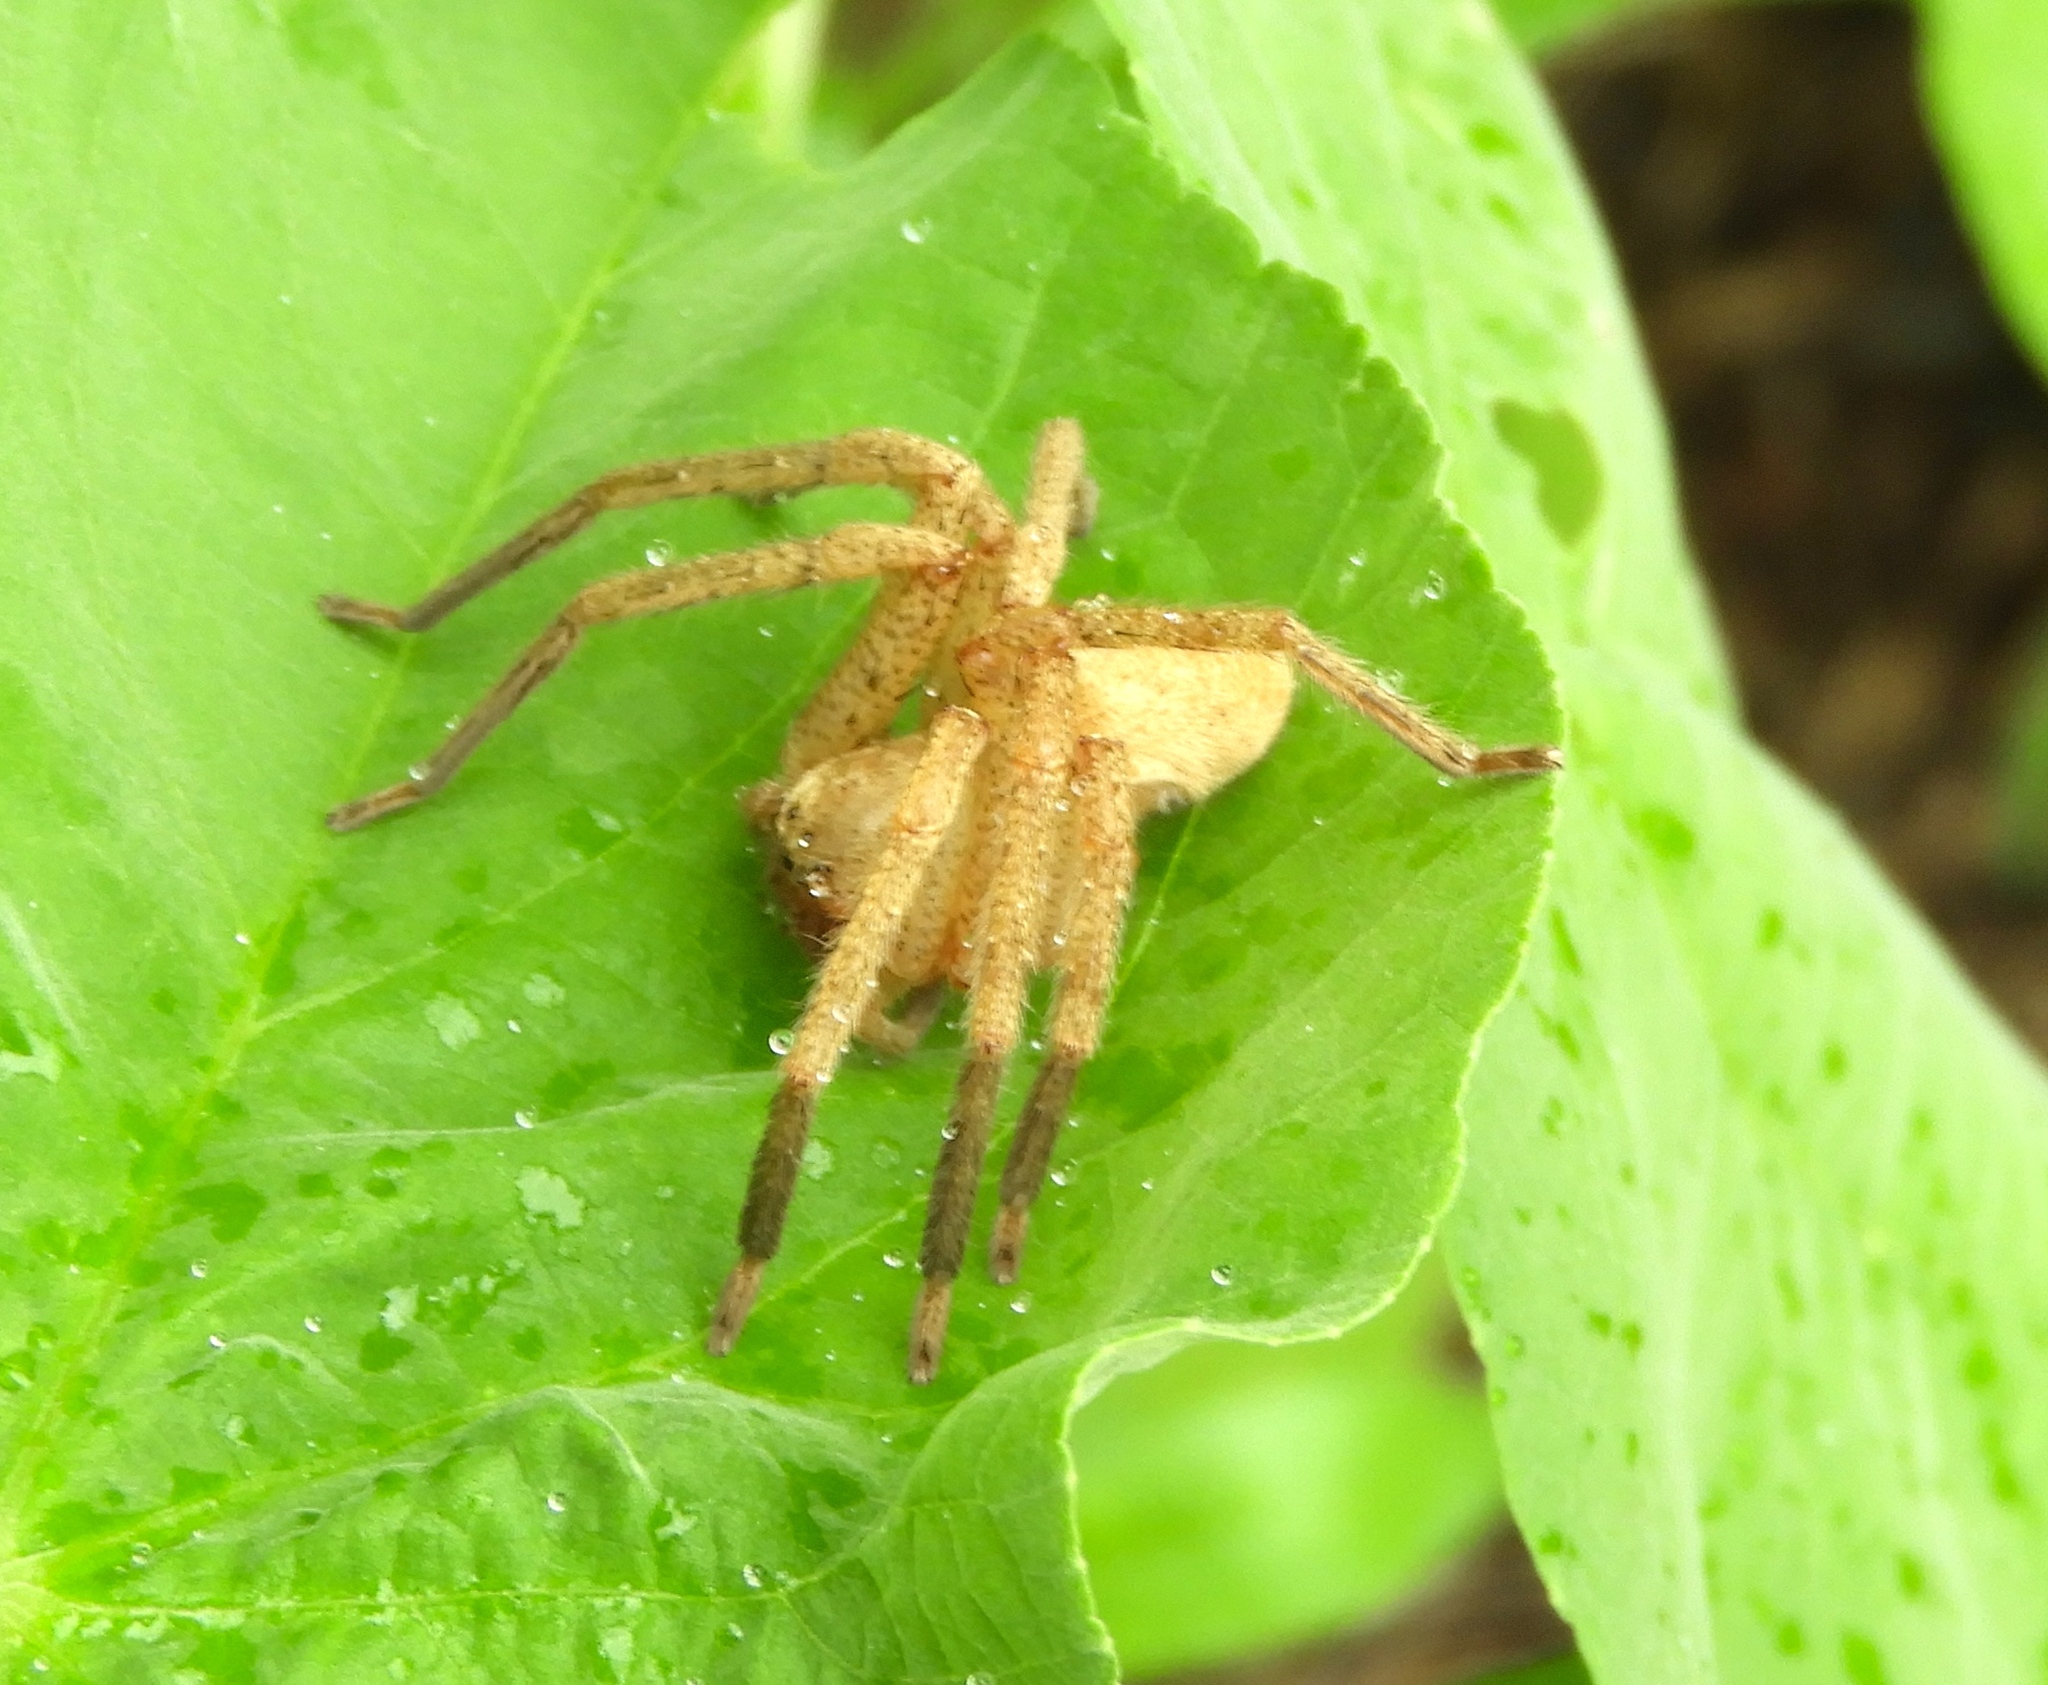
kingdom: Animalia
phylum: Arthropoda
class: Arachnida
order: Araneae
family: Sparassidae
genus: Curicaberis
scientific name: Curicaberis
